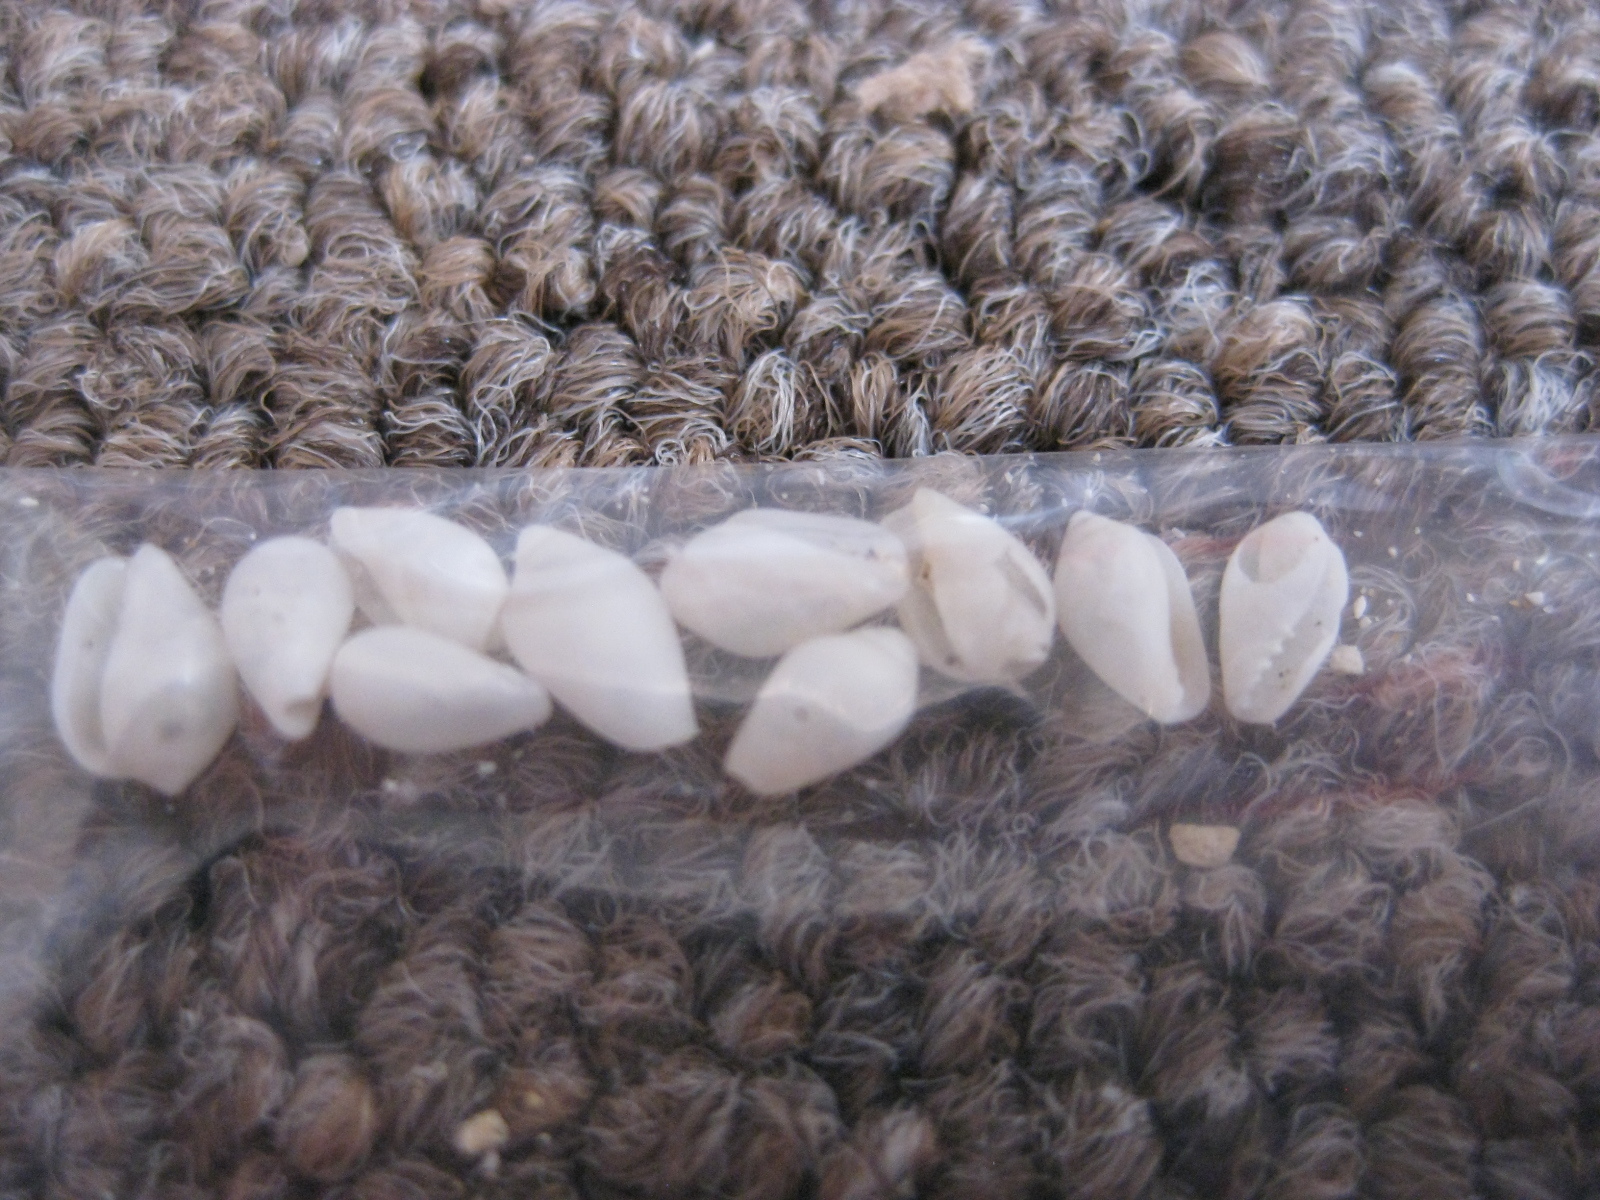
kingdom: Animalia
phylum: Mollusca
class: Gastropoda
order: Neogastropoda
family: Marginellidae
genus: Mesoginella
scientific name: Mesoginella koma
